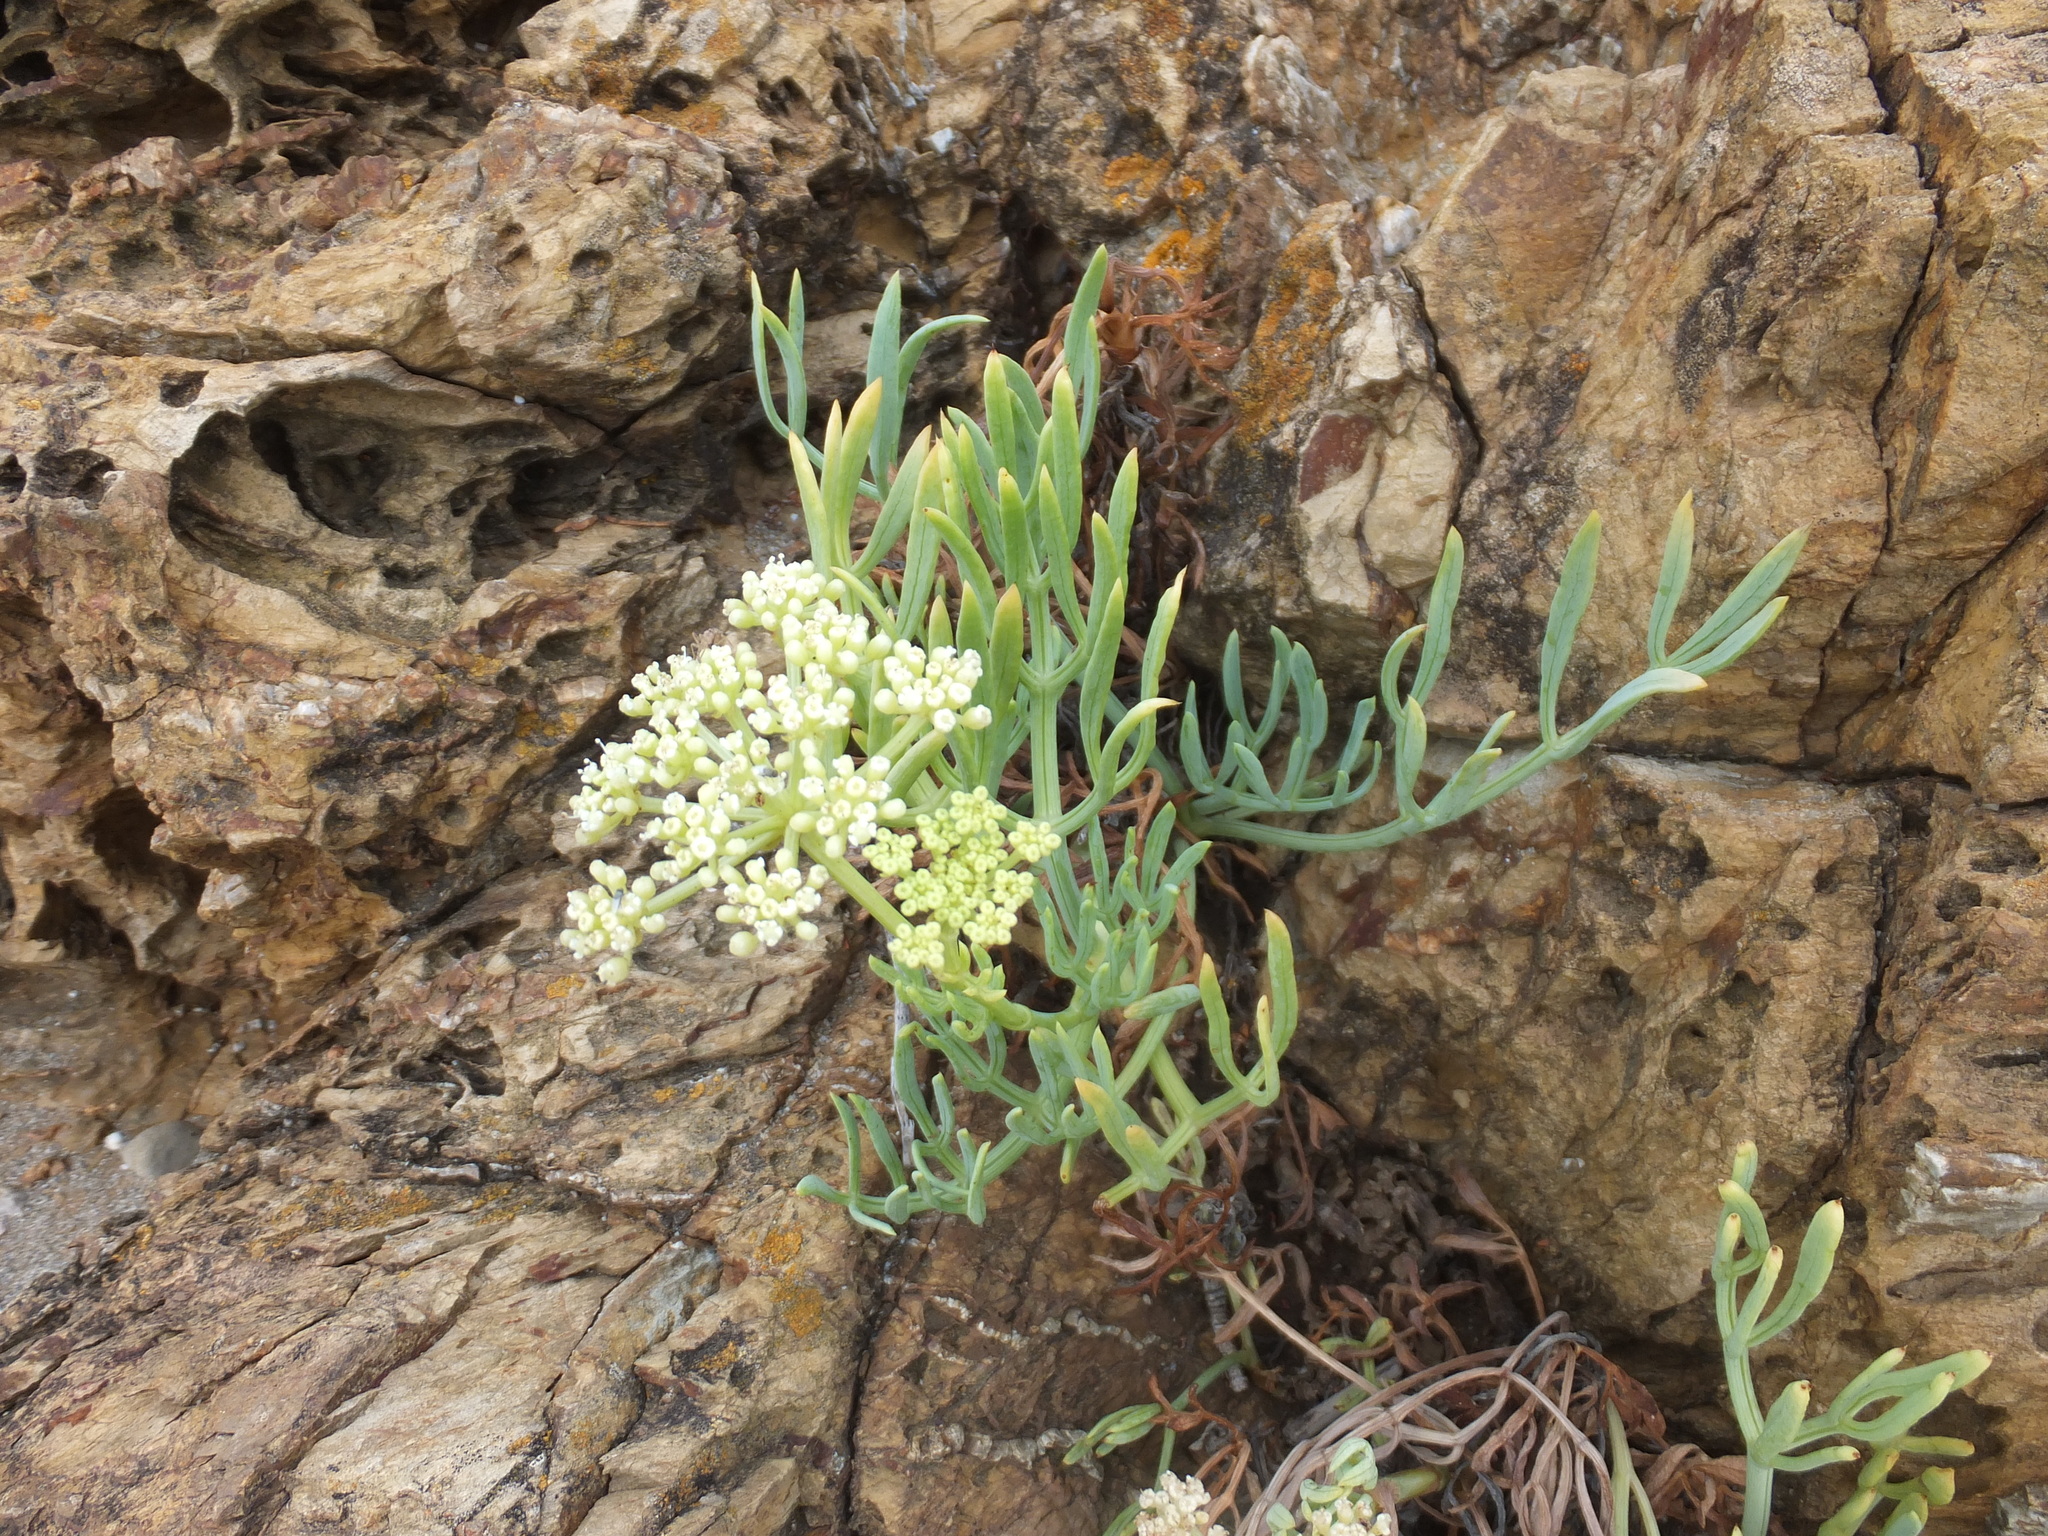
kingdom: Plantae
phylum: Tracheophyta
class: Magnoliopsida
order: Apiales
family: Apiaceae
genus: Crithmum
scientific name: Crithmum maritimum
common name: Rock samphire
